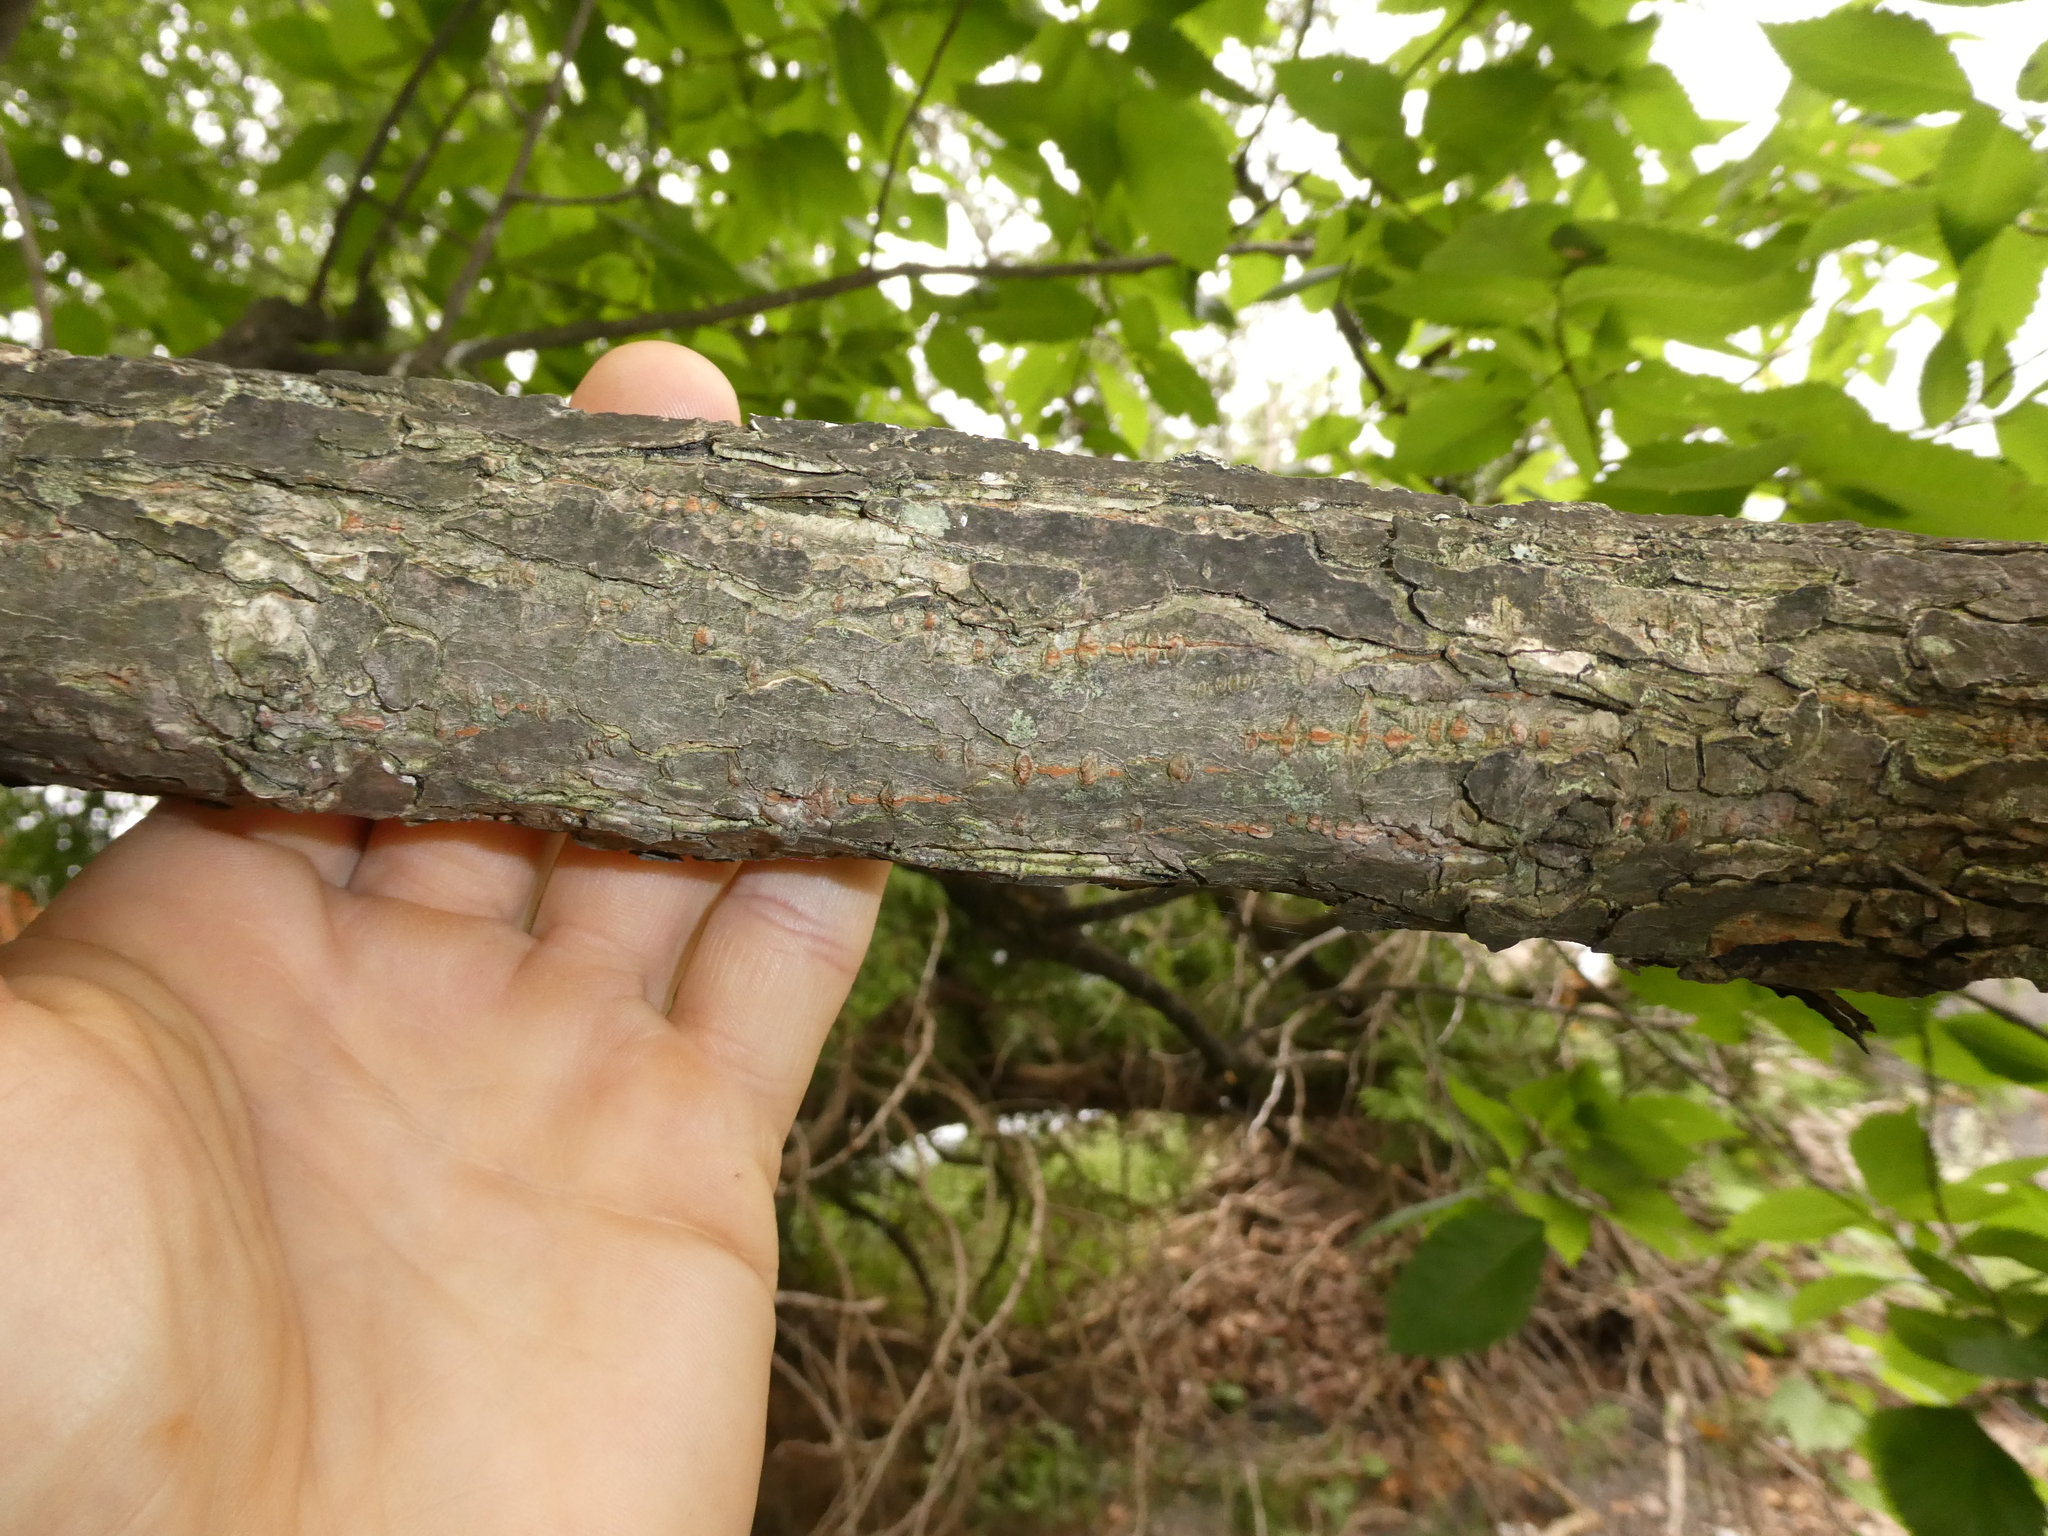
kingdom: Plantae
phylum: Tracheophyta
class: Magnoliopsida
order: Rosales
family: Ulmaceae
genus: Ulmus
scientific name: Ulmus americana
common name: American elm
